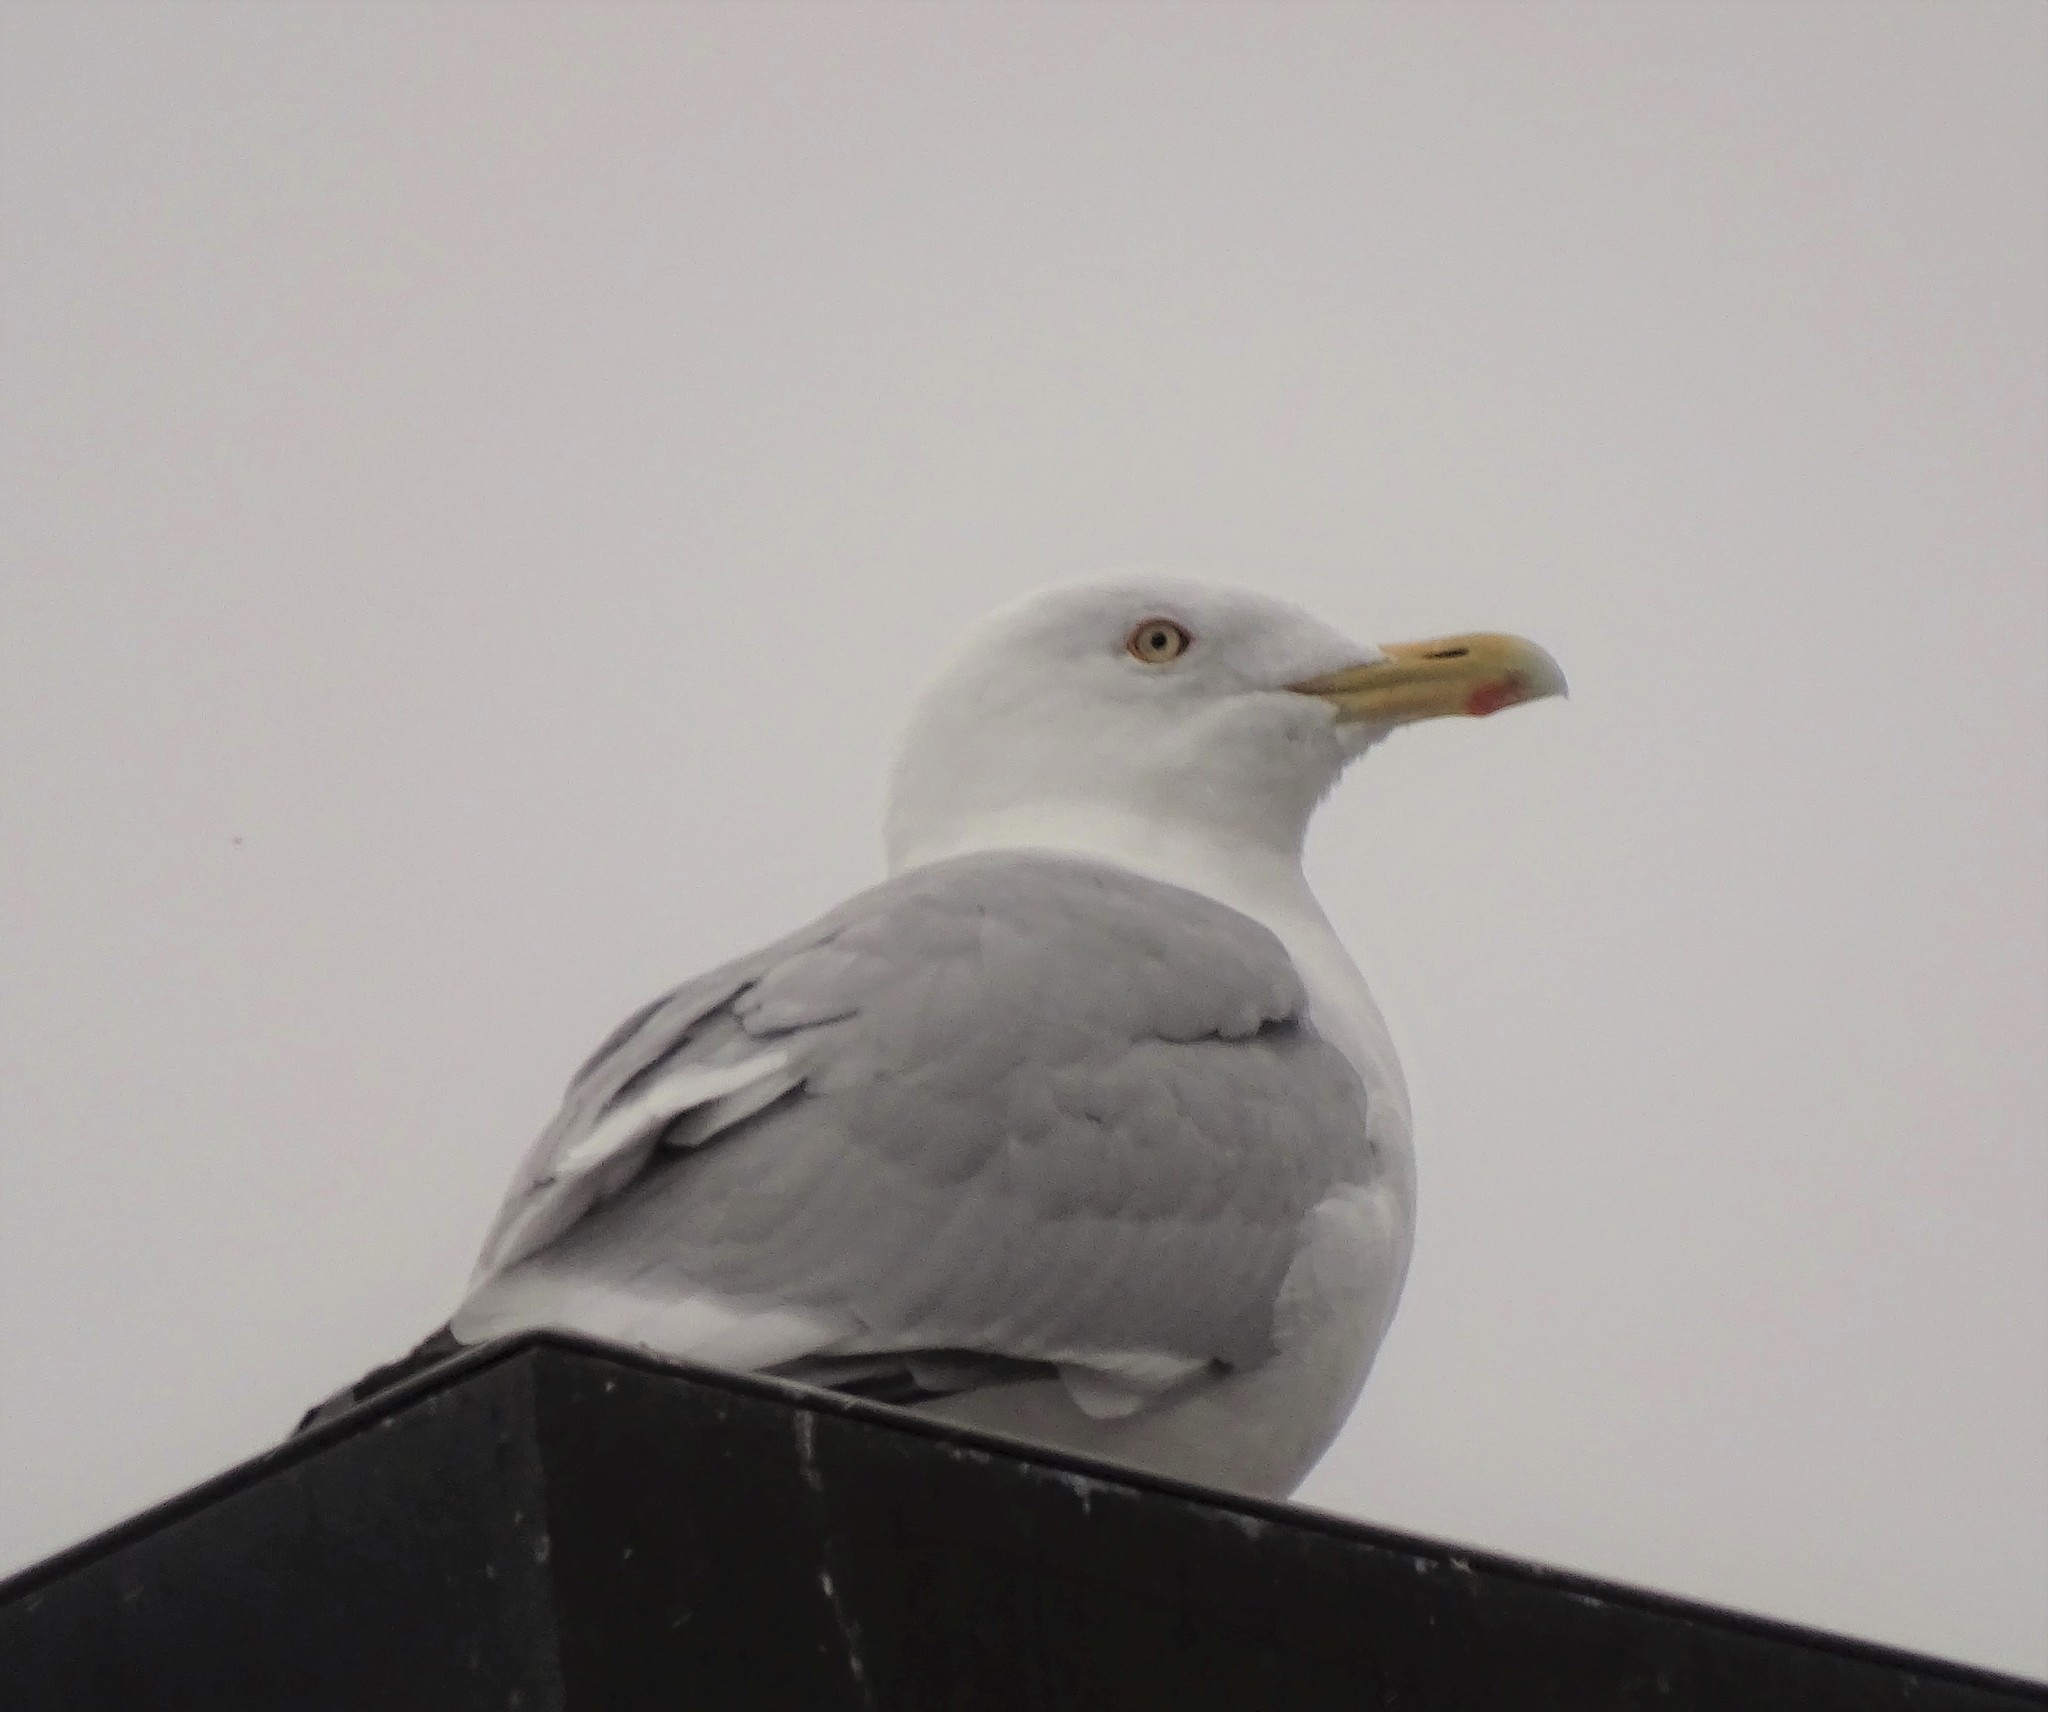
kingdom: Animalia
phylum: Chordata
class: Aves
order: Charadriiformes
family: Laridae
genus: Larus
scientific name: Larus argentatus
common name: Herring gull
